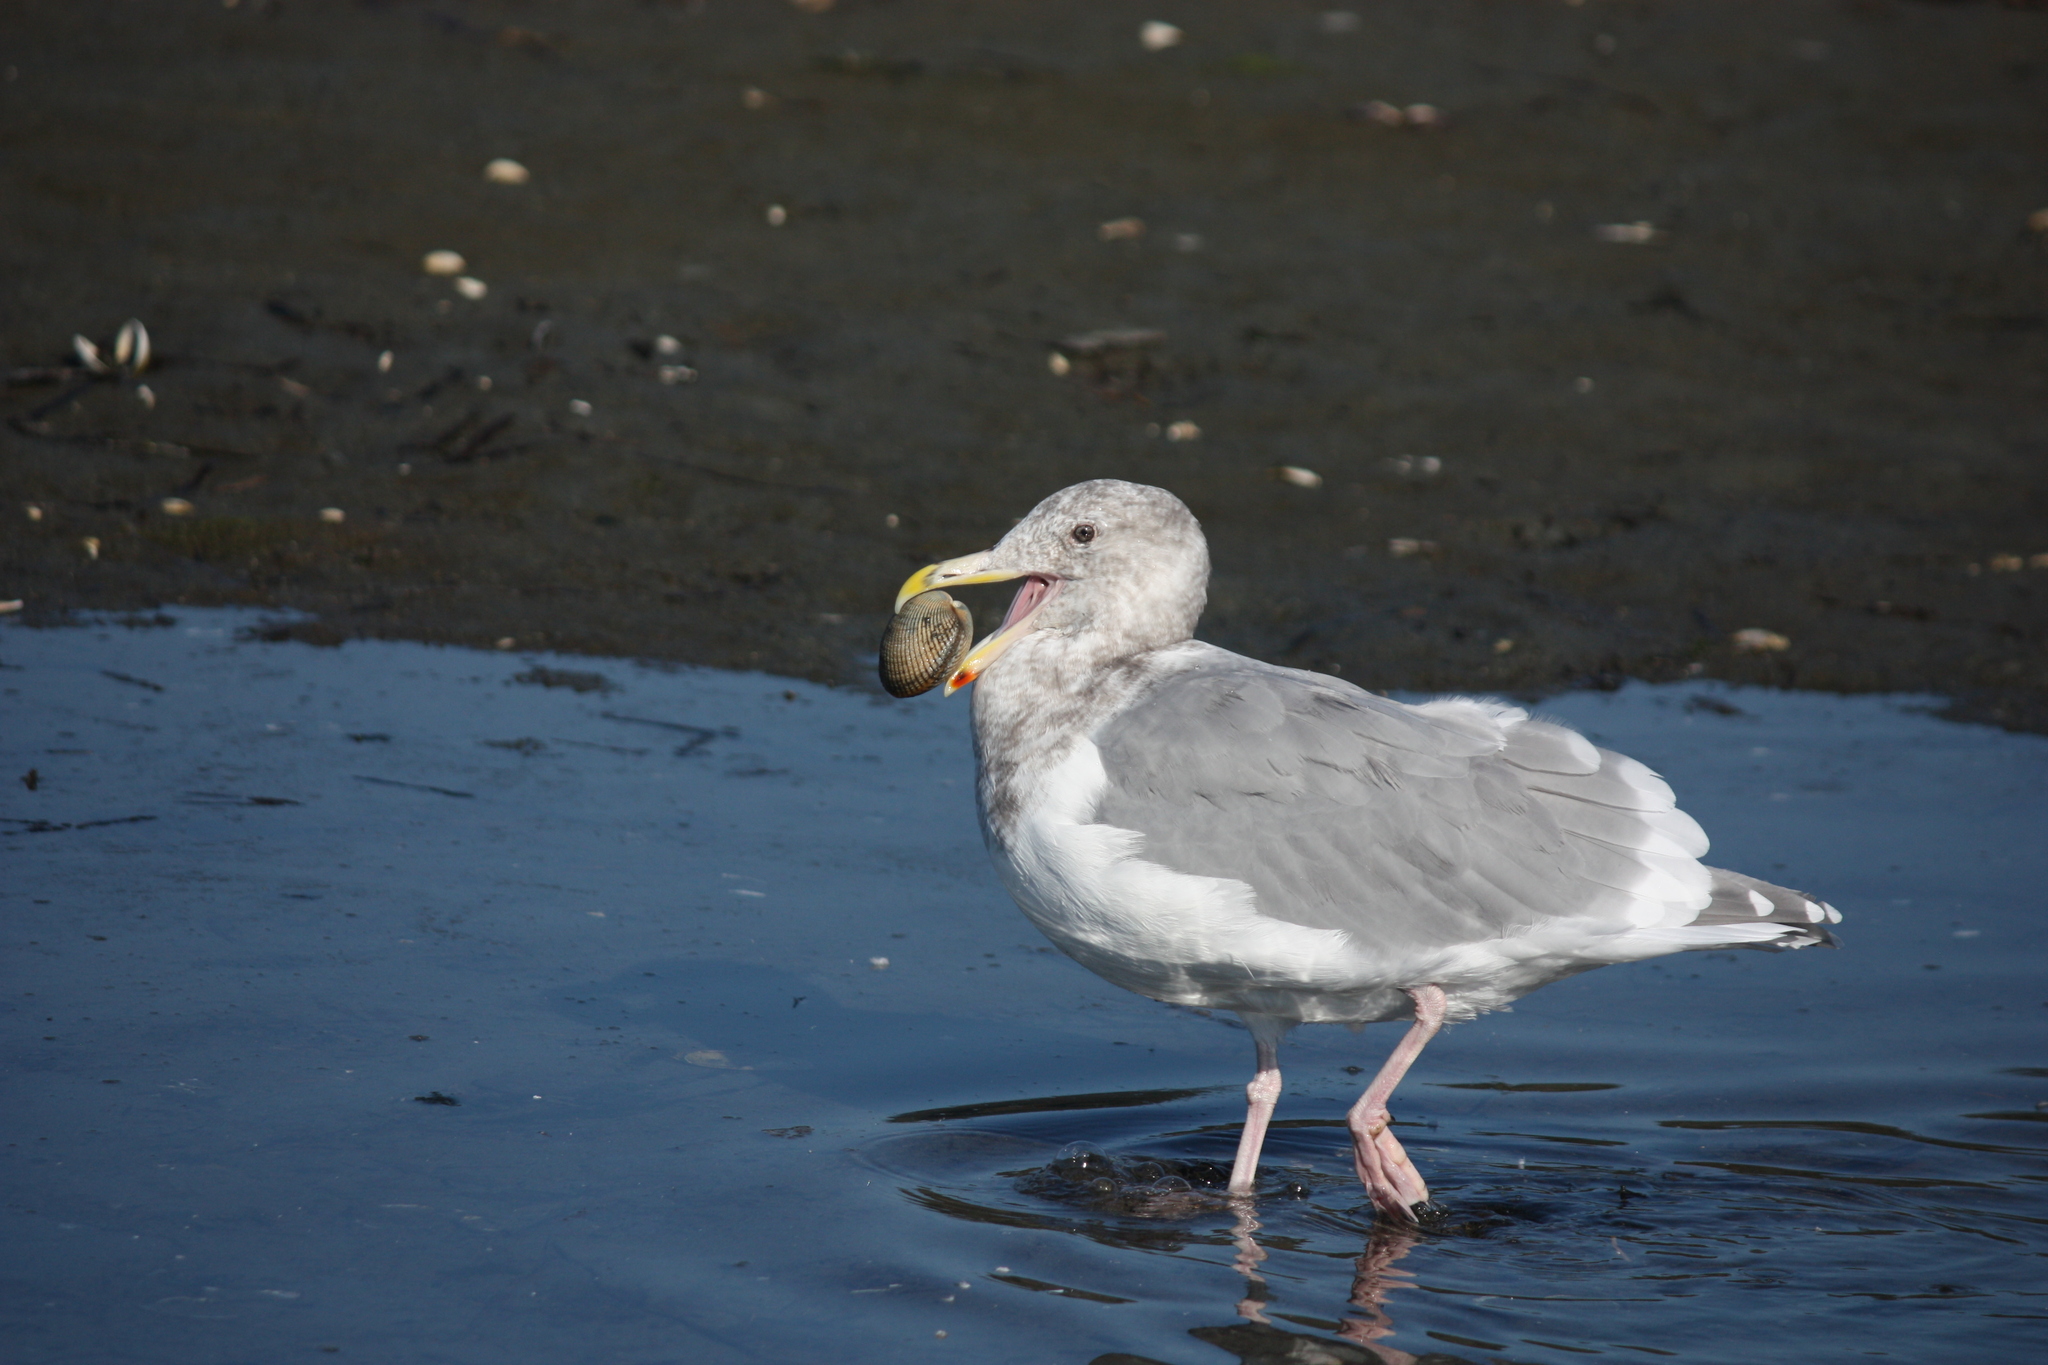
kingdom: Animalia
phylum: Chordata
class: Aves
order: Charadriiformes
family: Laridae
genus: Larus
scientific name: Larus
